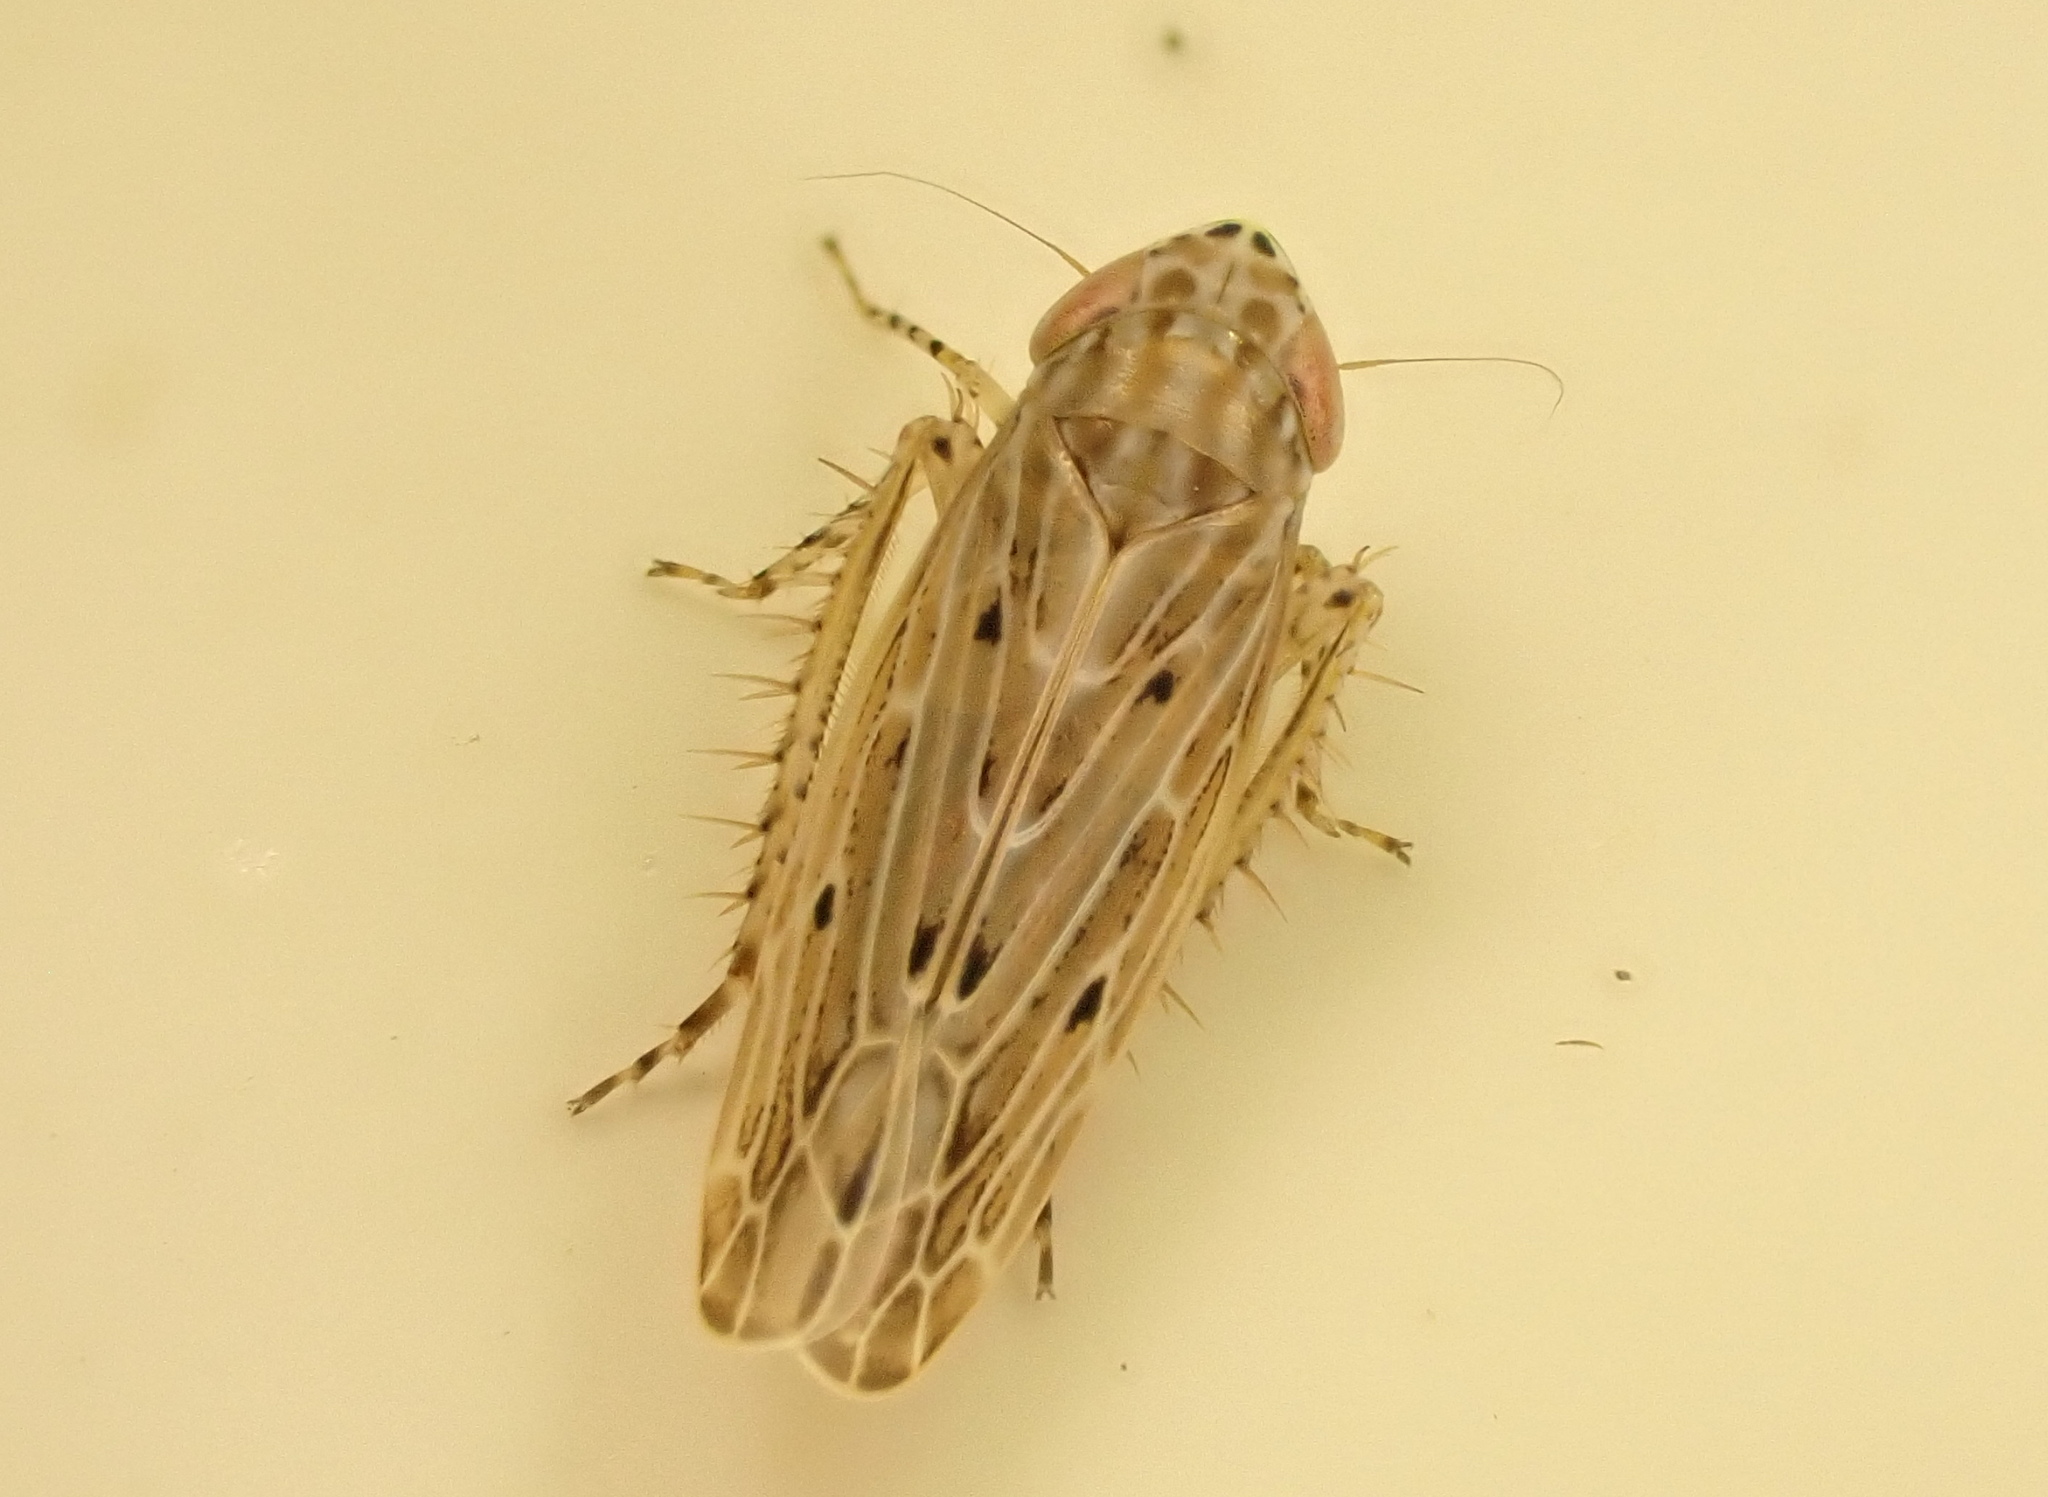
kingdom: Animalia
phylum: Arthropoda
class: Insecta
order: Hemiptera
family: Cicadellidae
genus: Maiestas
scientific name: Maiestas vetus
